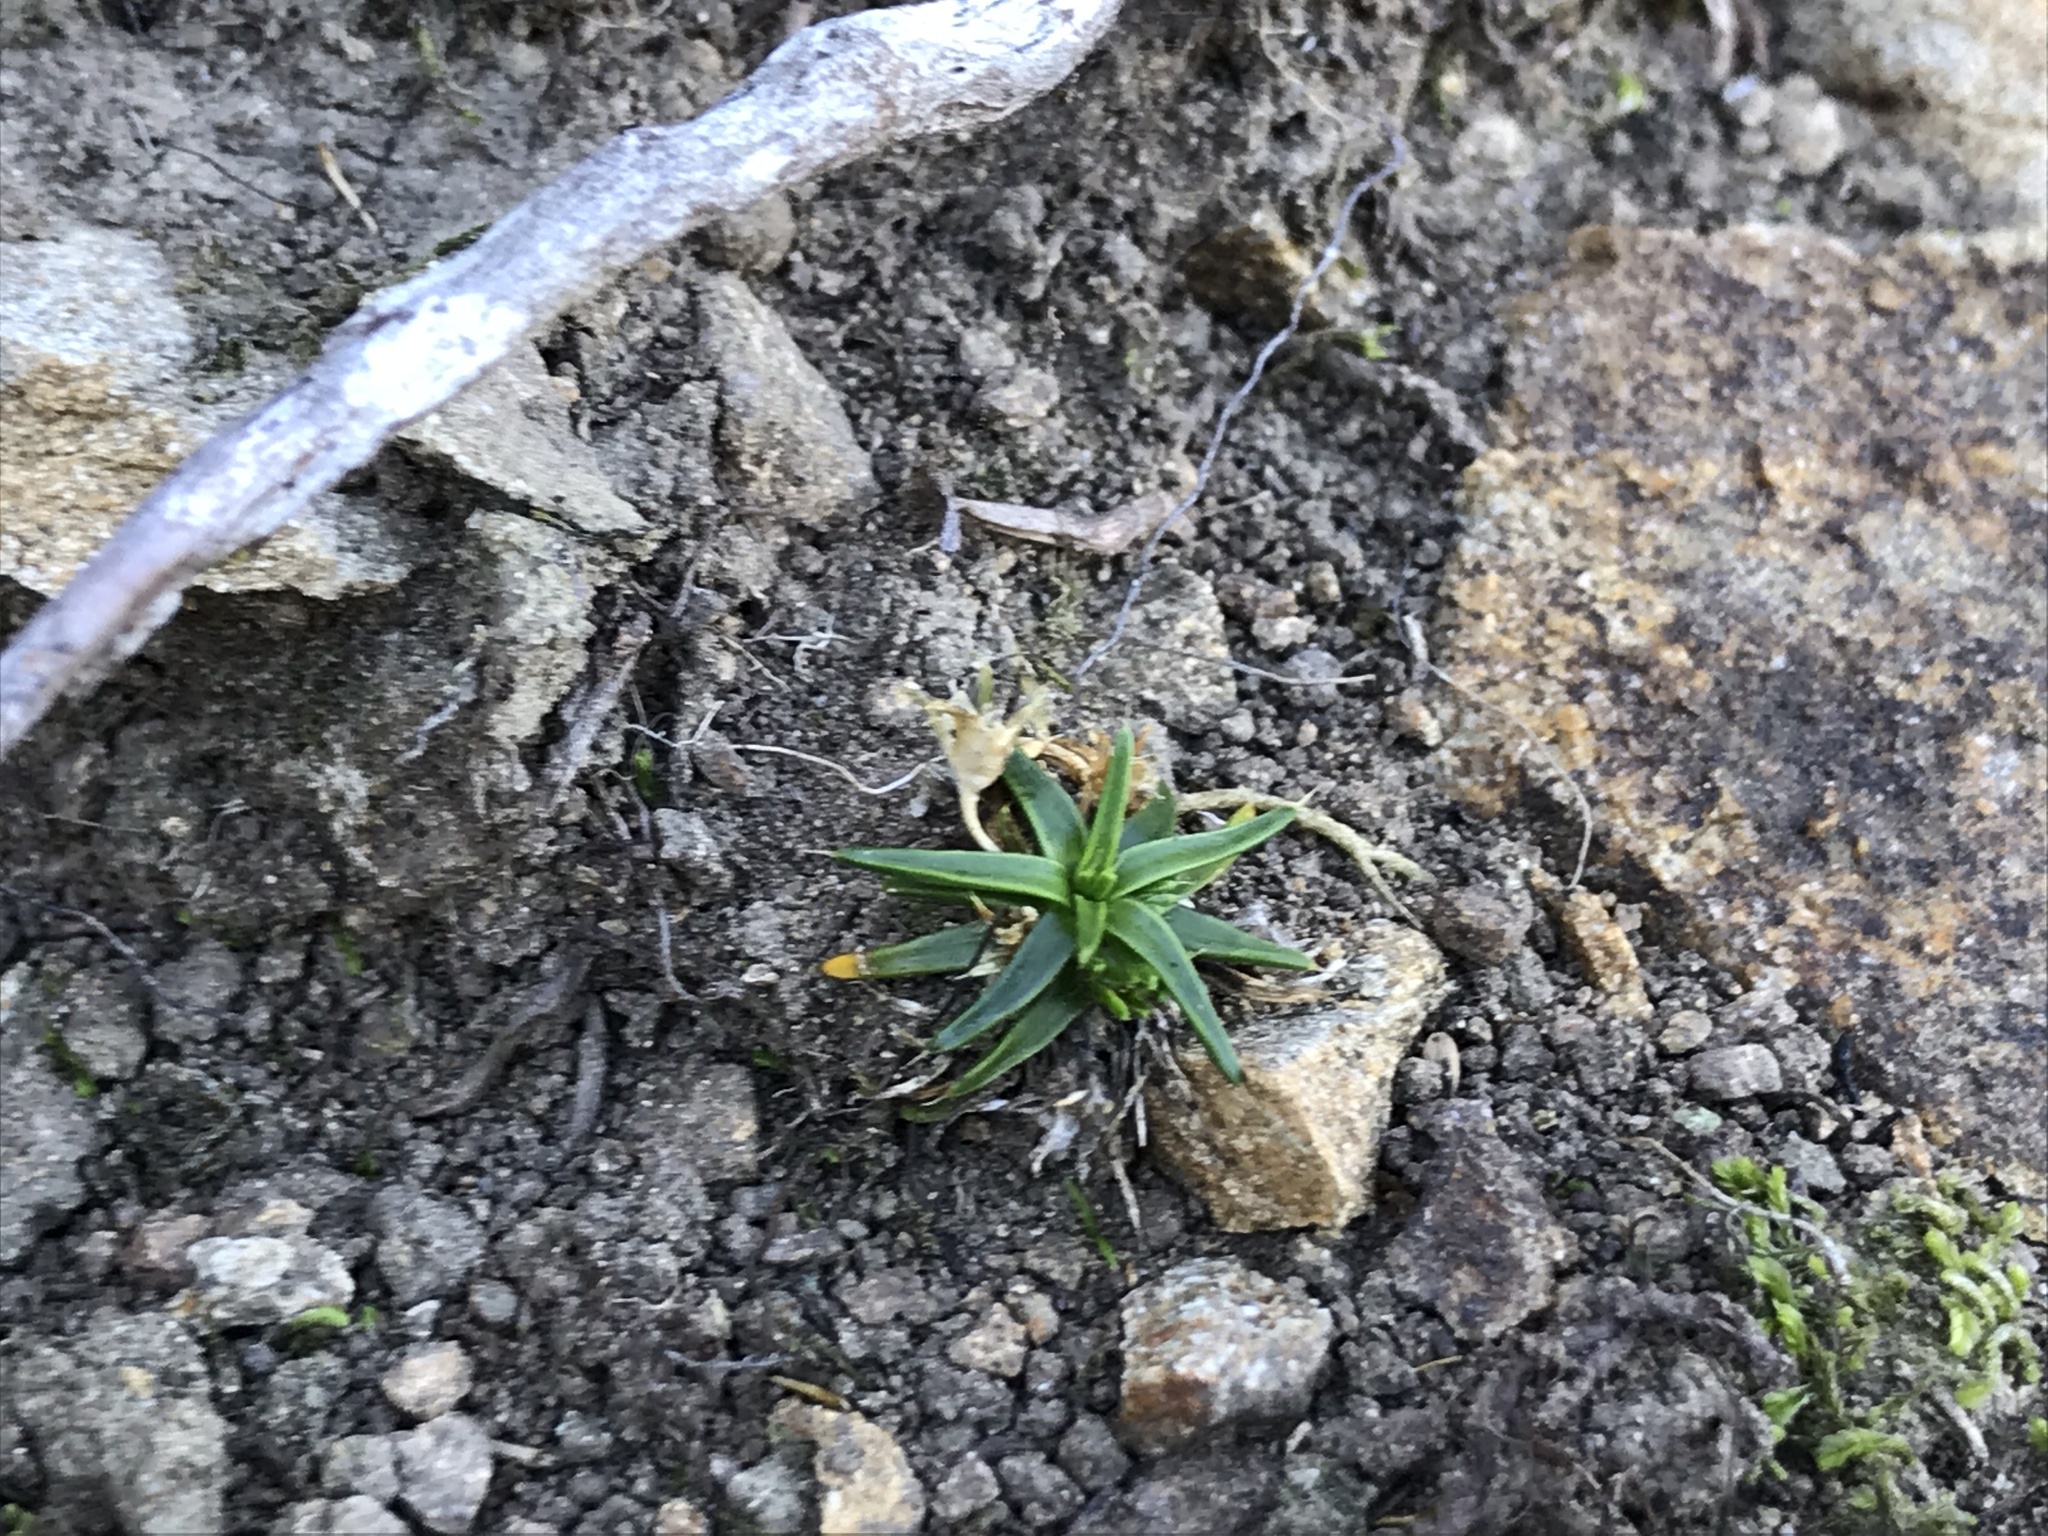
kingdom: Plantae
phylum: Tracheophyta
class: Magnoliopsida
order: Caryophyllales
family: Caryophyllaceae
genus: Colobanthus
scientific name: Colobanthus muelleri
